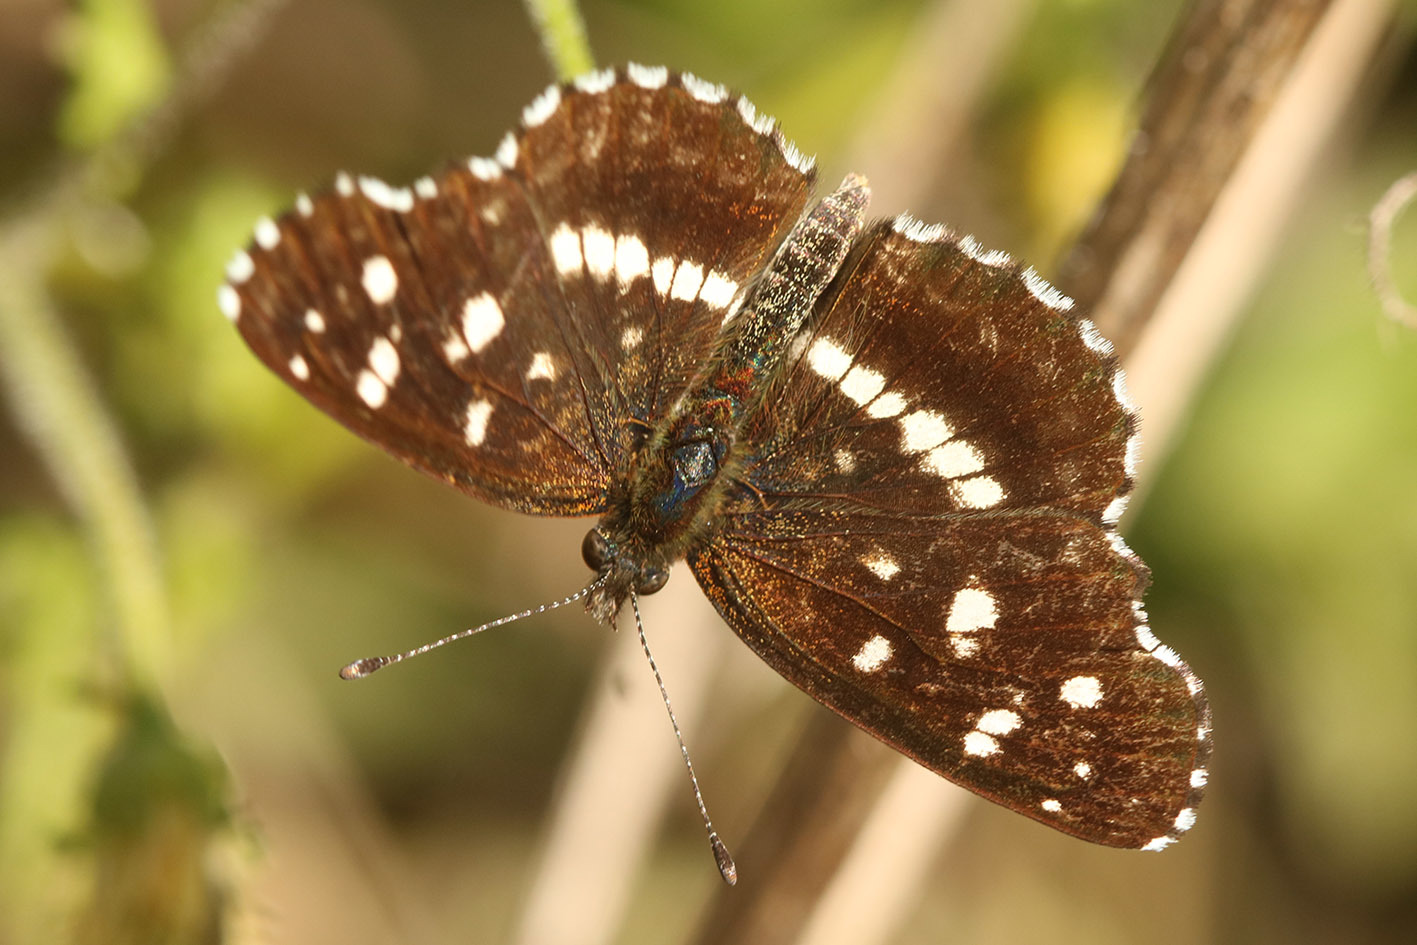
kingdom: Animalia
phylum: Arthropoda
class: Insecta
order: Lepidoptera
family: Nymphalidae
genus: Ortilia
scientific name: Ortilia ithra
